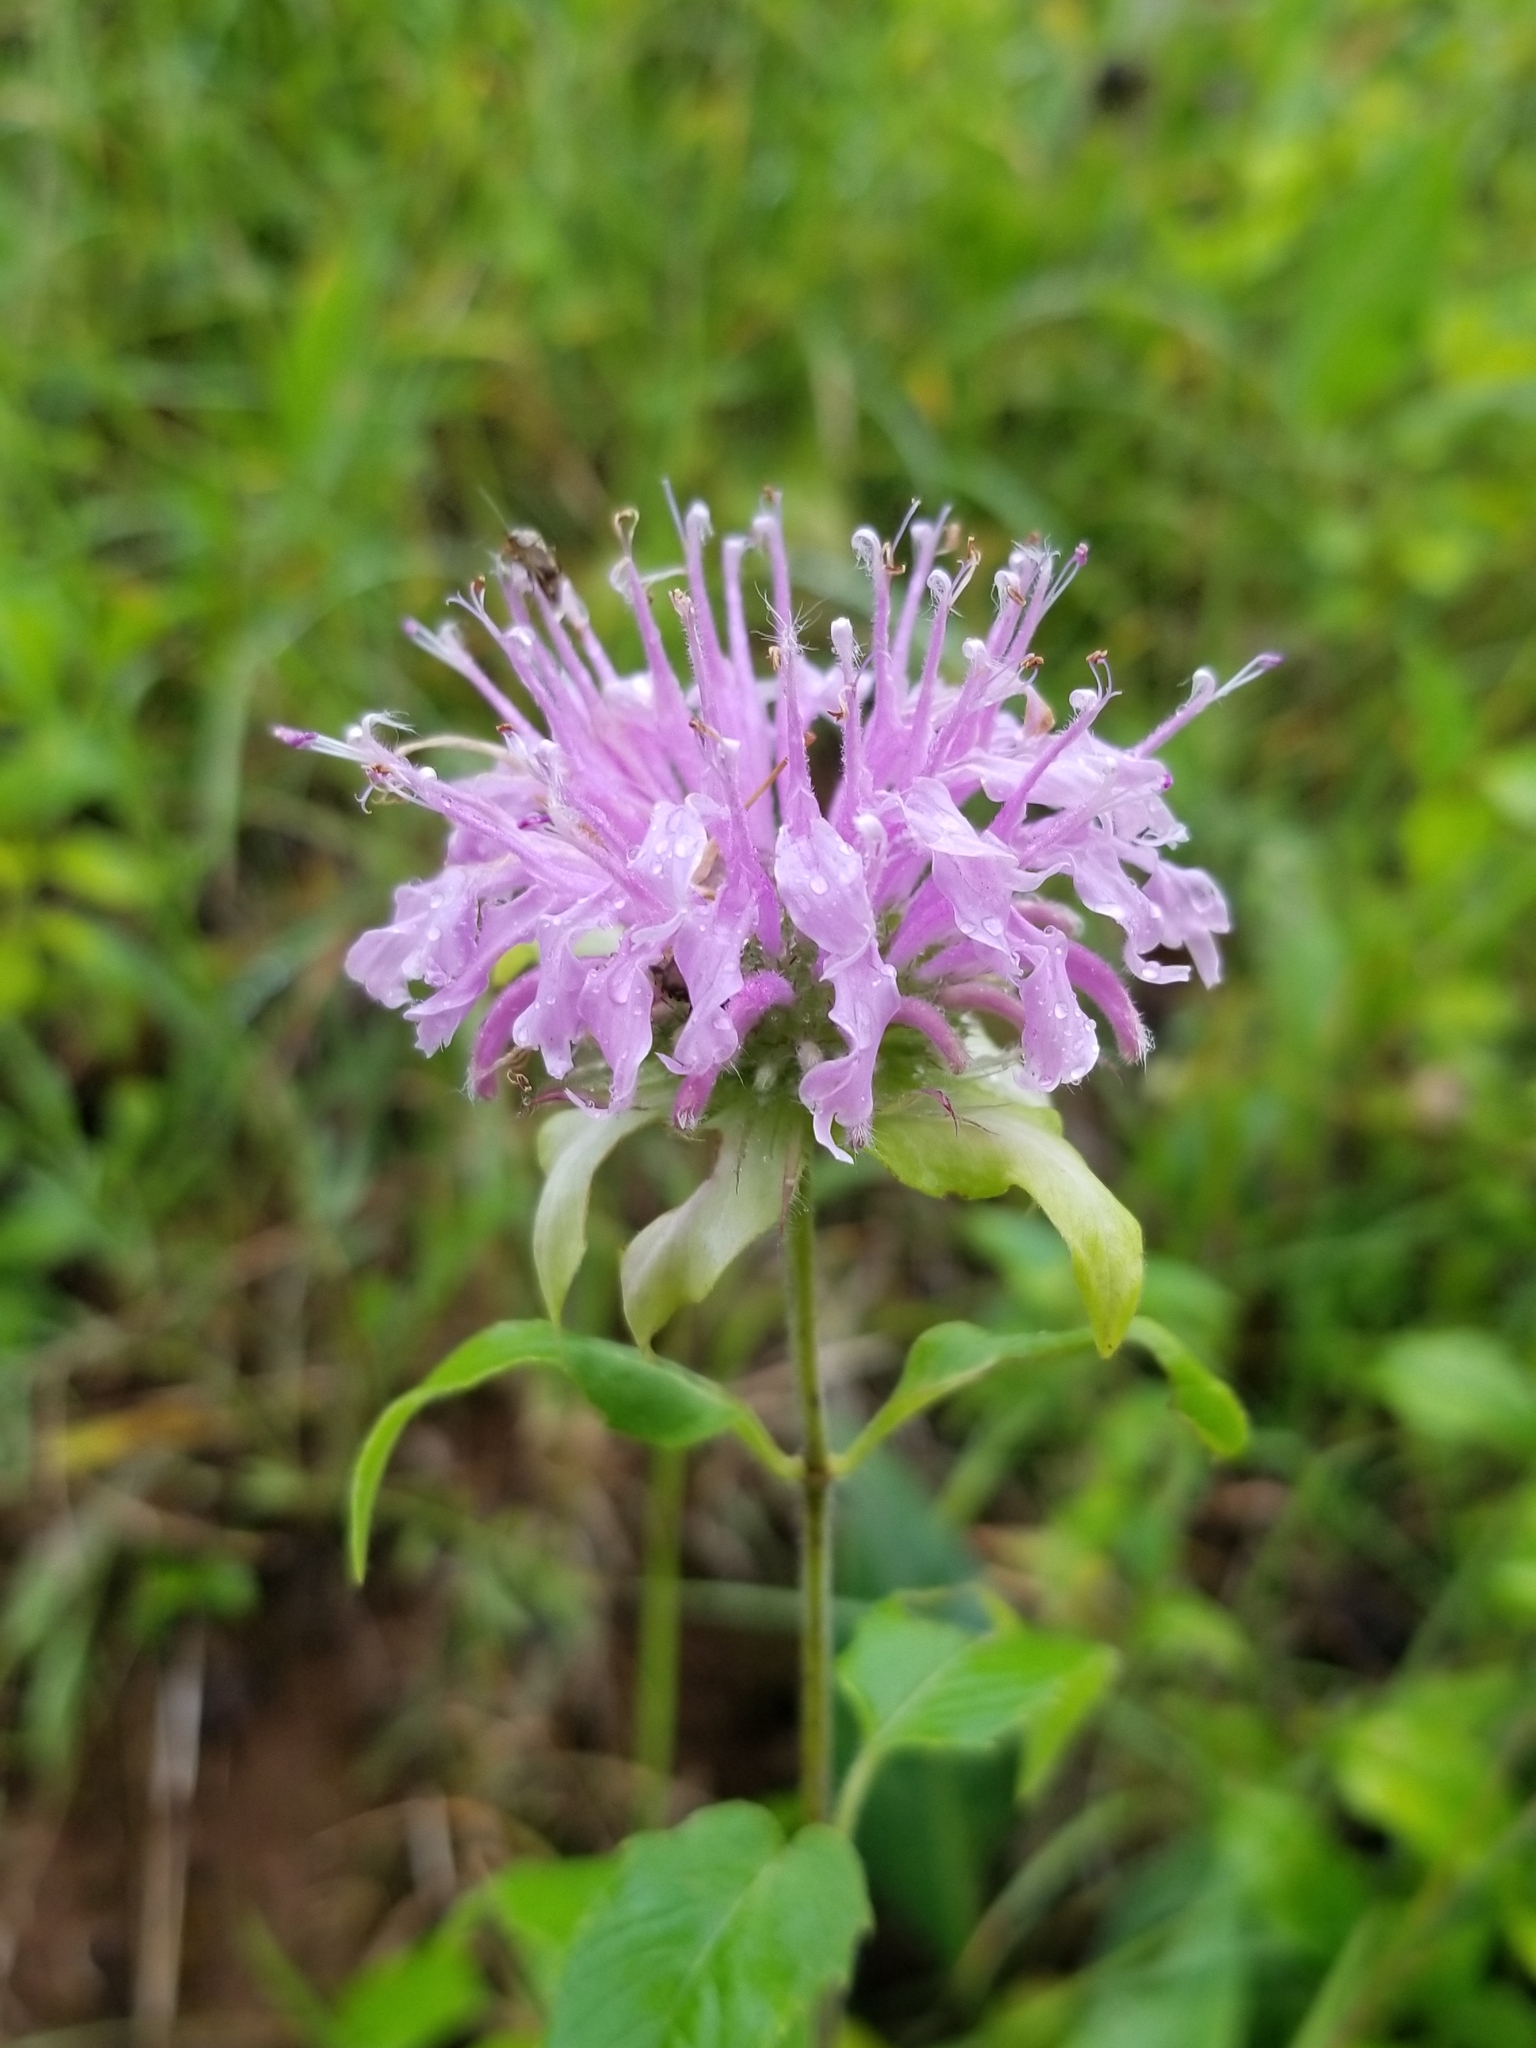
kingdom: Plantae
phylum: Tracheophyta
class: Magnoliopsida
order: Lamiales
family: Lamiaceae
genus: Monarda
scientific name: Monarda fistulosa
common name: Purple beebalm
